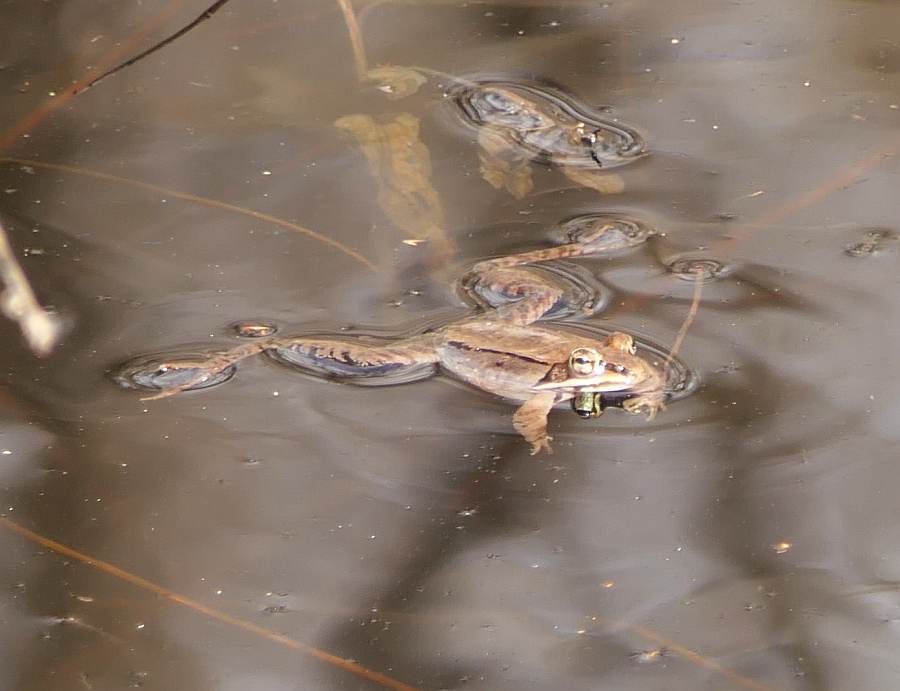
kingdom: Animalia
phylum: Chordata
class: Amphibia
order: Anura
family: Ranidae
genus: Lithobates
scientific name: Lithobates sylvaticus
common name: Wood frog
